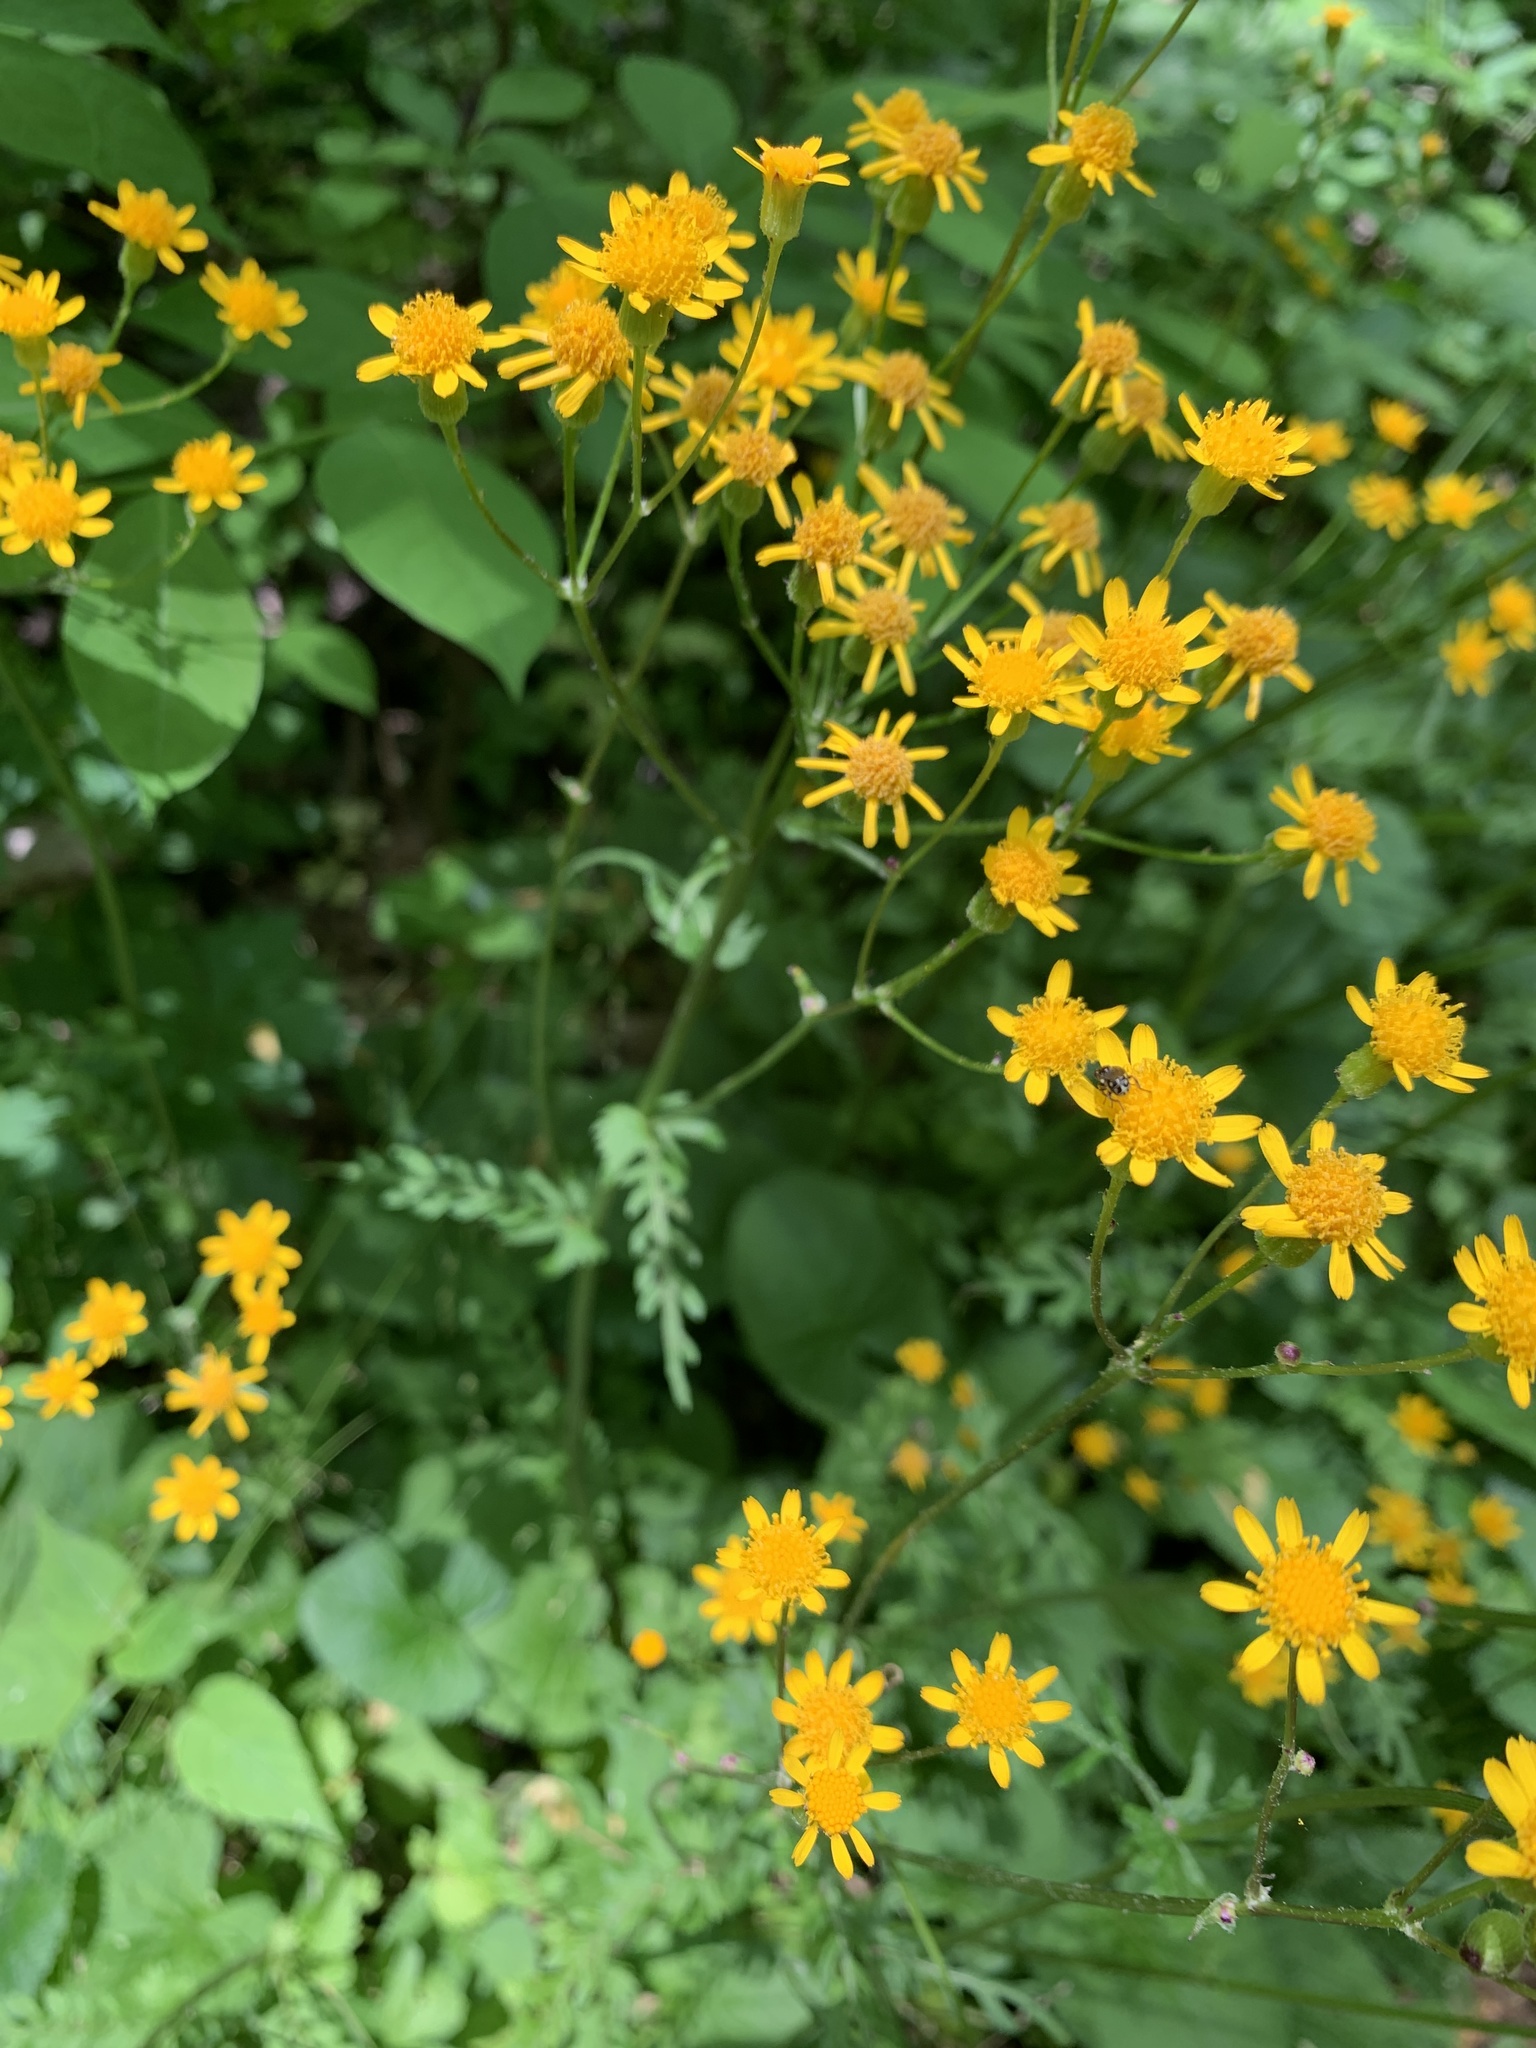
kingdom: Plantae
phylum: Tracheophyta
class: Magnoliopsida
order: Asterales
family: Asteraceae
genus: Packera
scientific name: Packera aurea
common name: Golden groundsel
